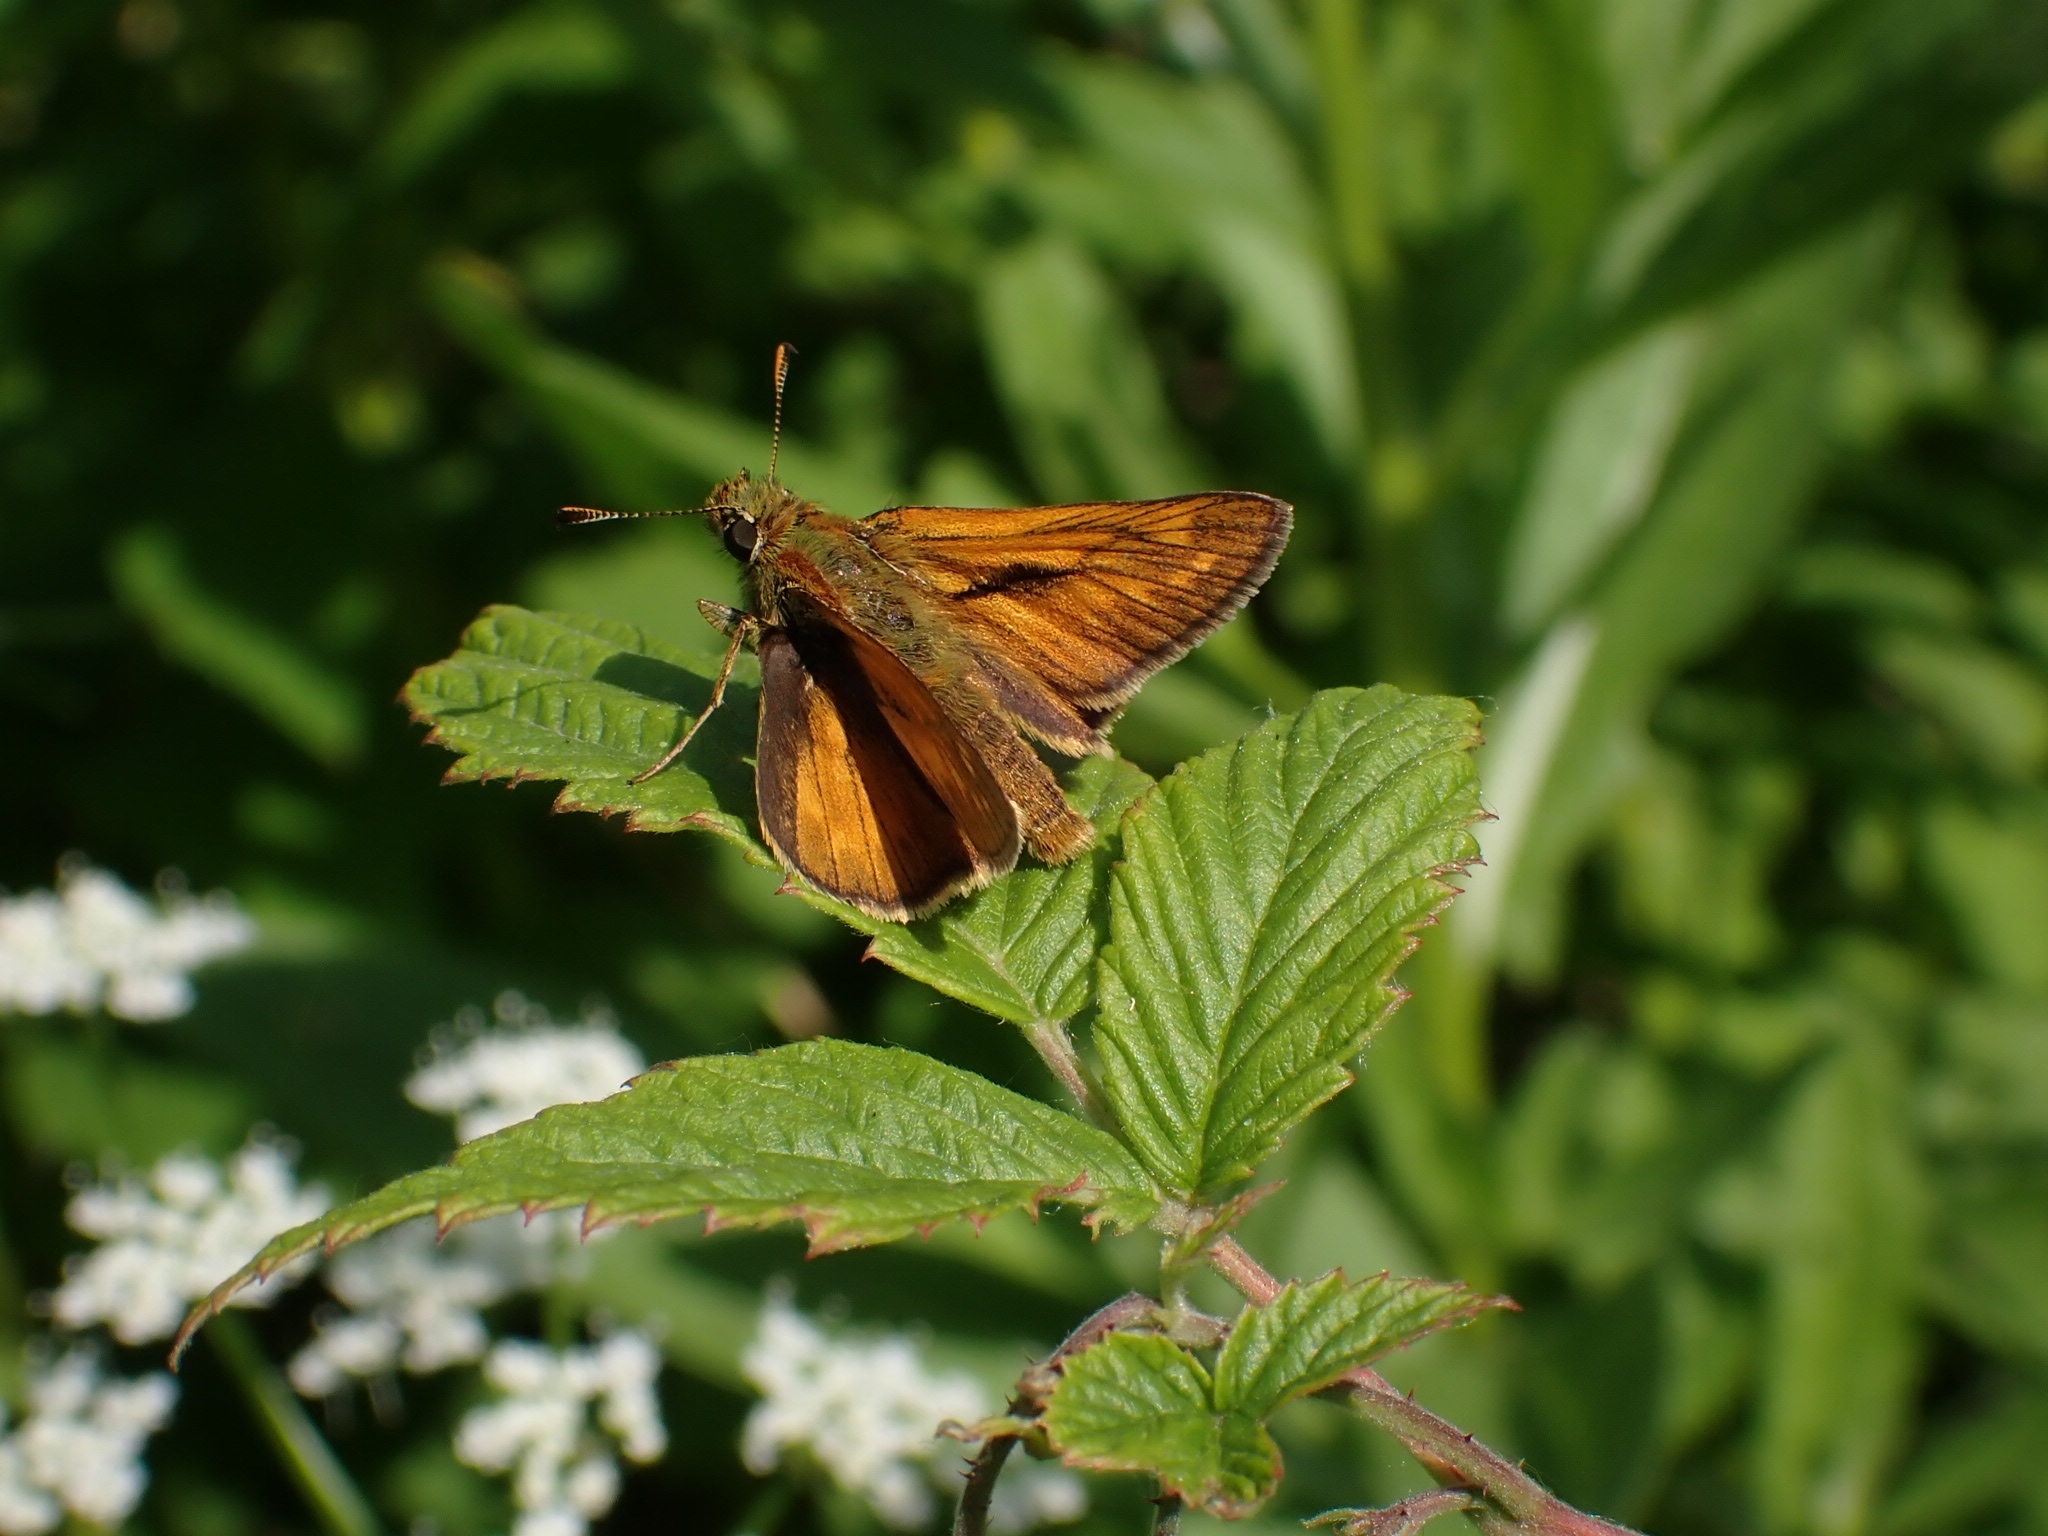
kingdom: Animalia
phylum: Arthropoda
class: Insecta
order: Lepidoptera
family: Hesperiidae
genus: Ochlodes
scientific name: Ochlodes venata
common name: Large skipper
